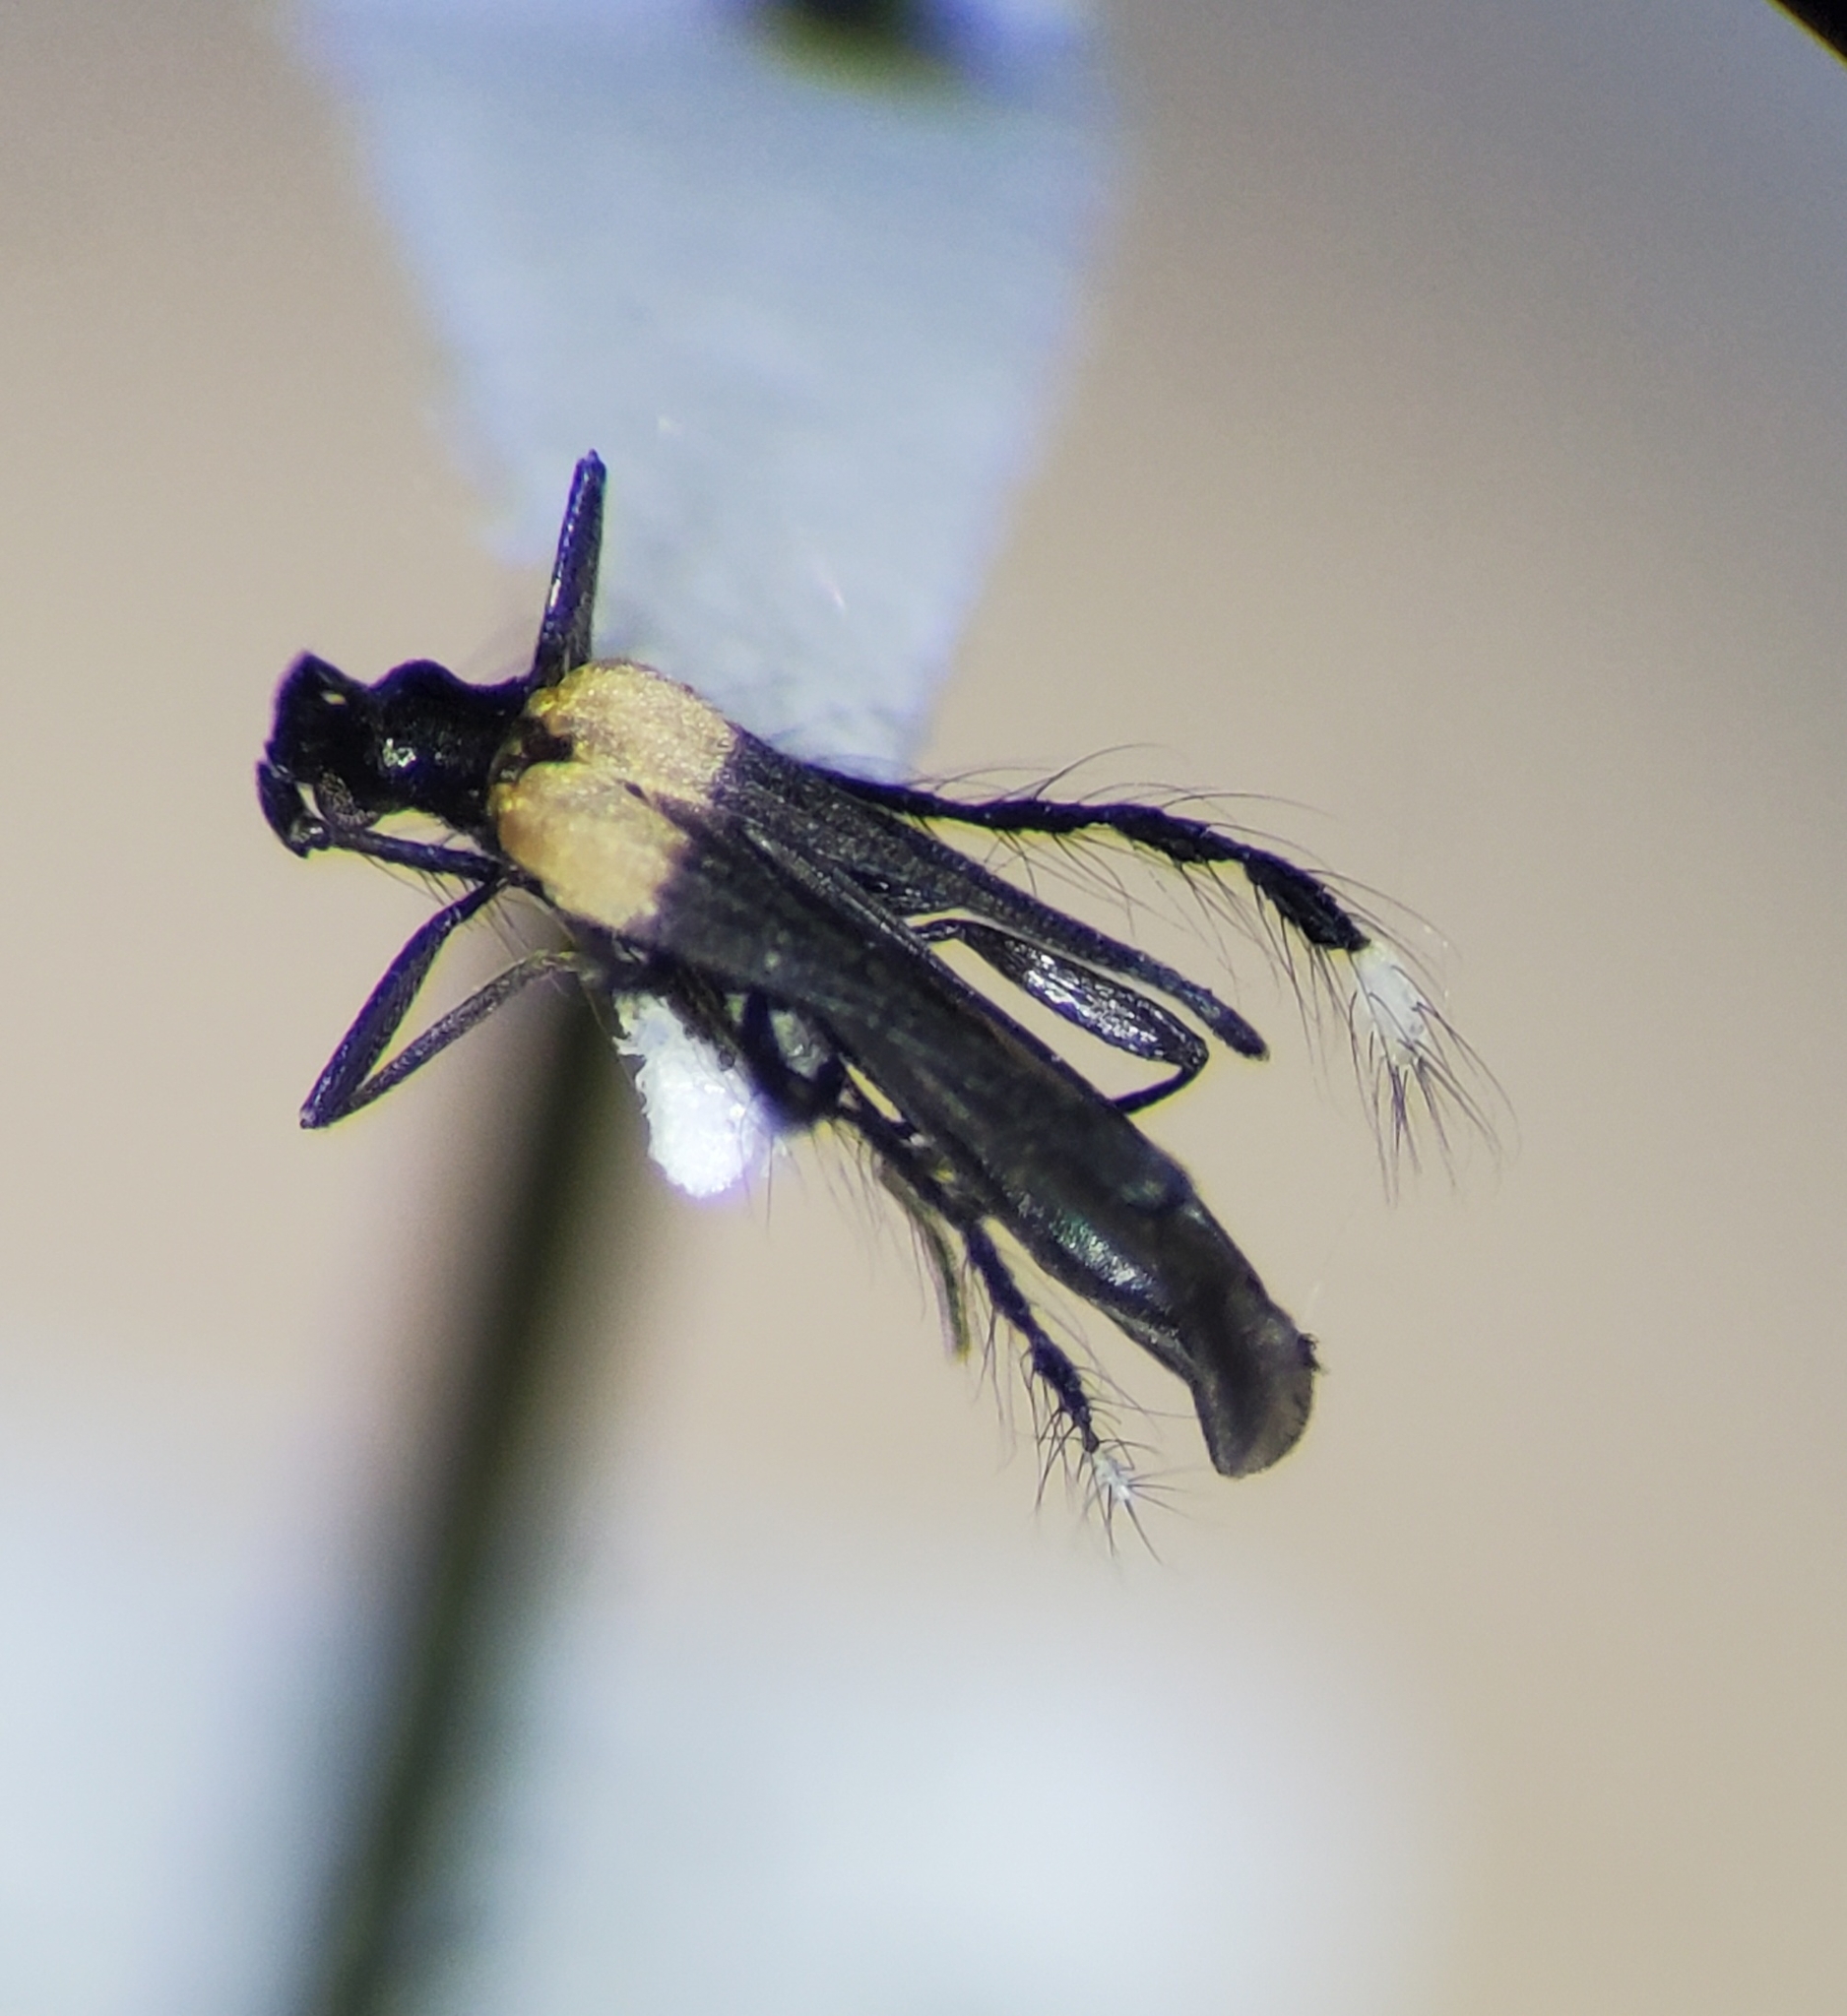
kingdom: Animalia
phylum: Arthropoda
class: Insecta
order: Coleoptera
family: Lycidae
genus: Leptolycus
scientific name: Leptolycus
